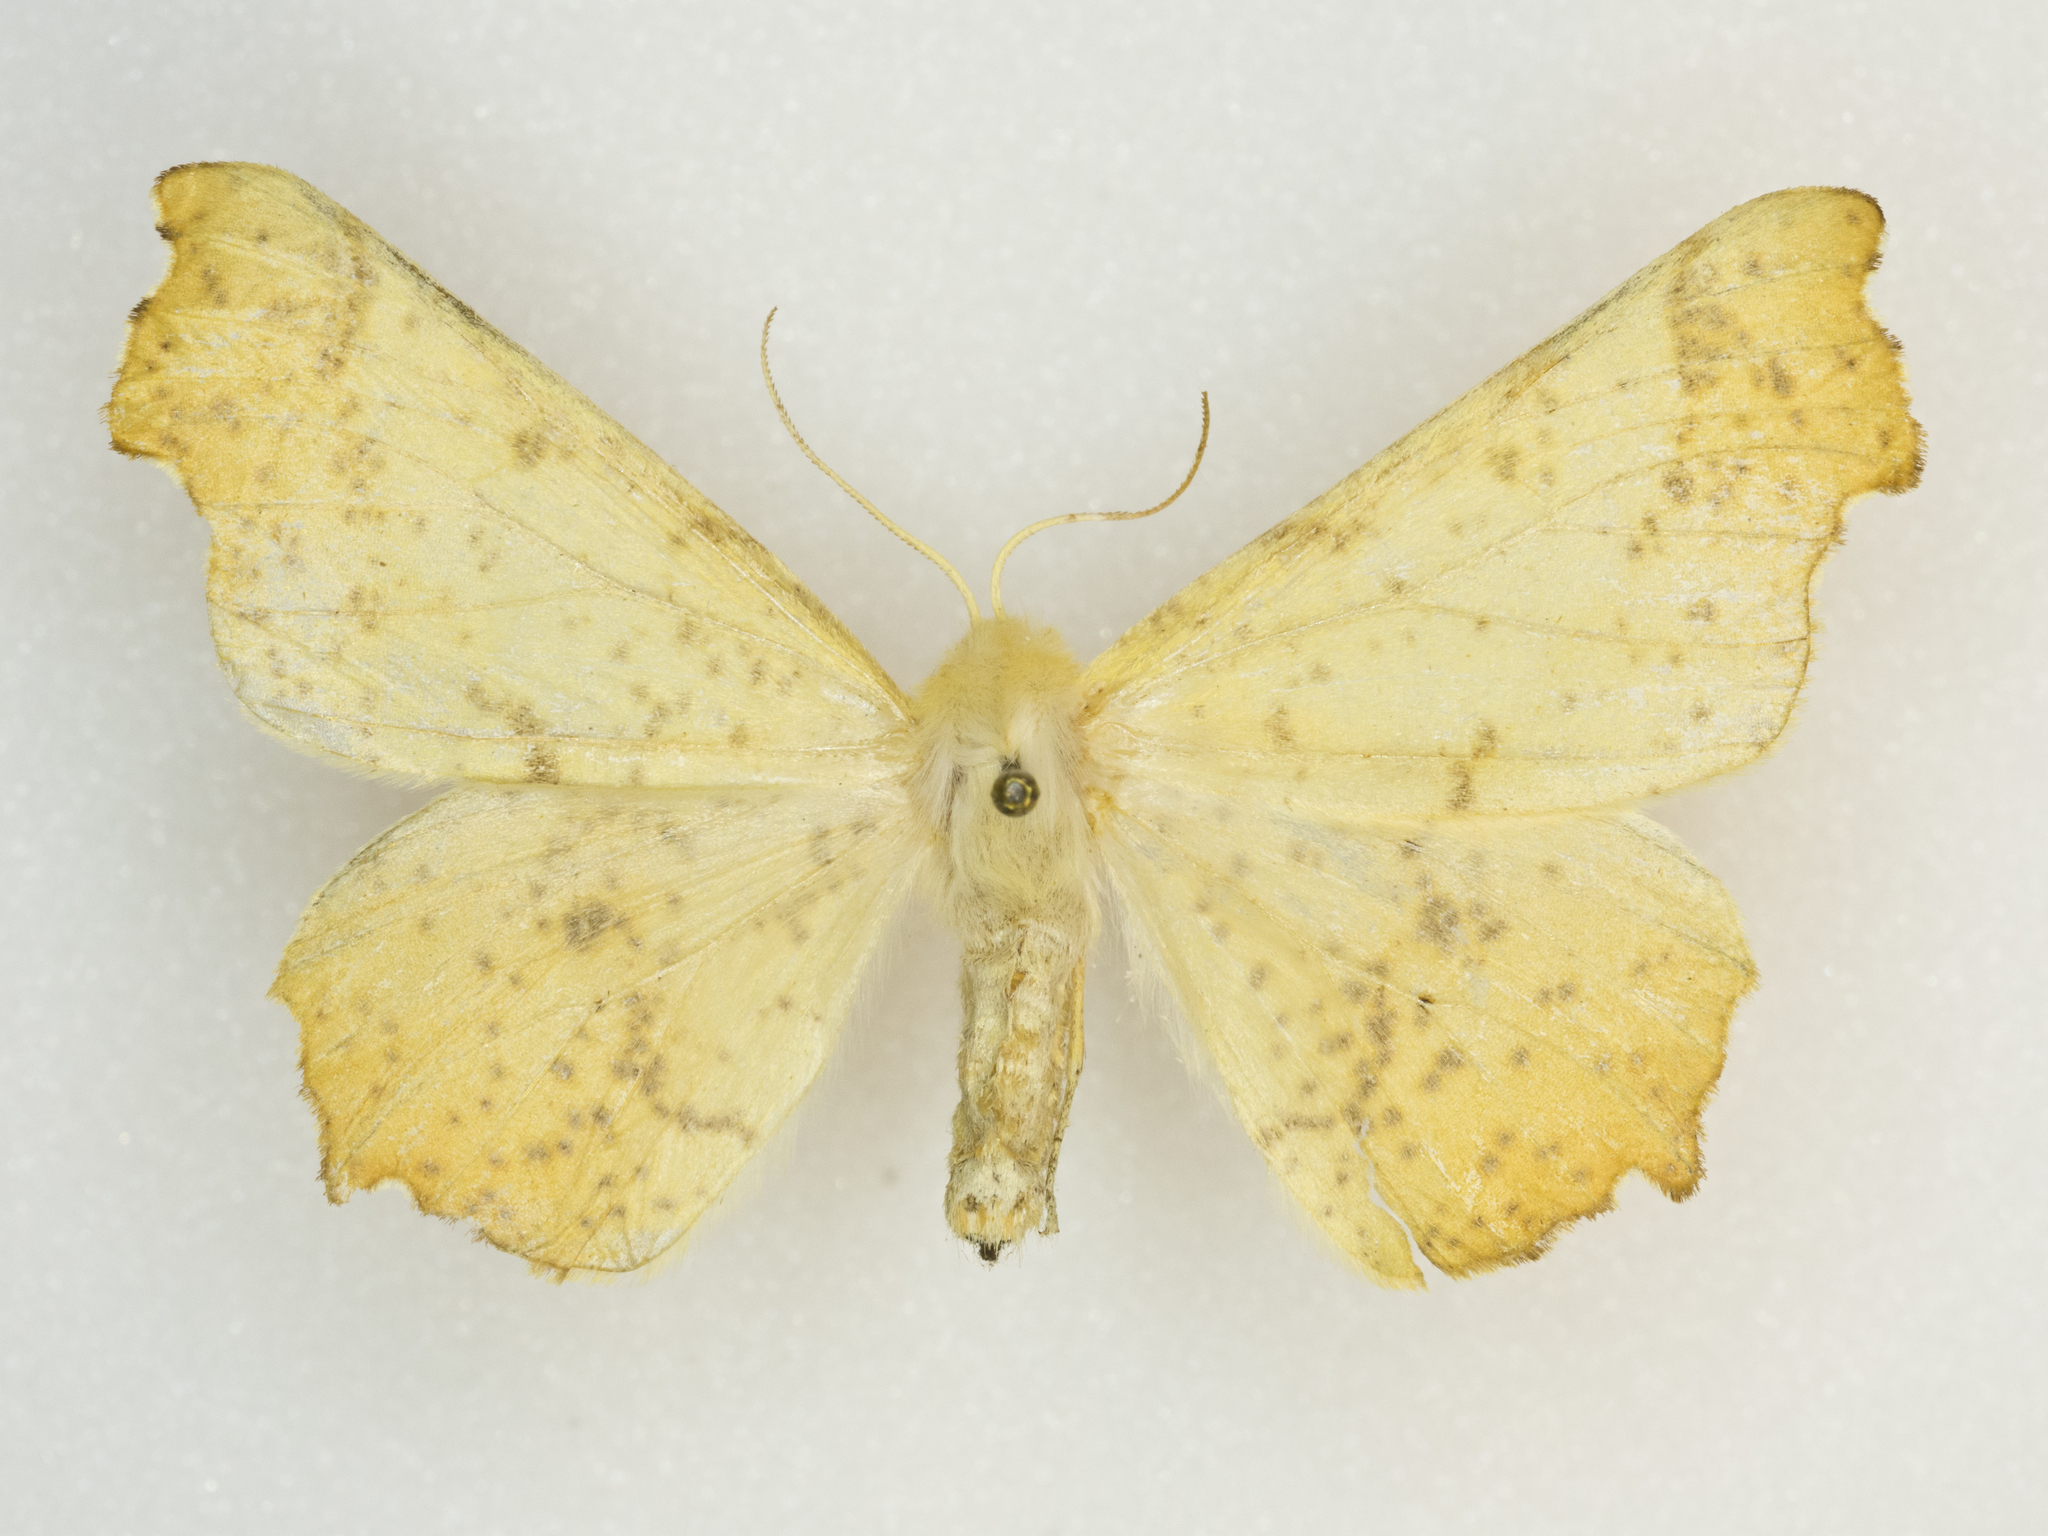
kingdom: Animalia
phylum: Arthropoda
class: Insecta
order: Lepidoptera
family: Geometridae
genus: Ennomos
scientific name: Ennomos magnaria
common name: Maple spanworm
